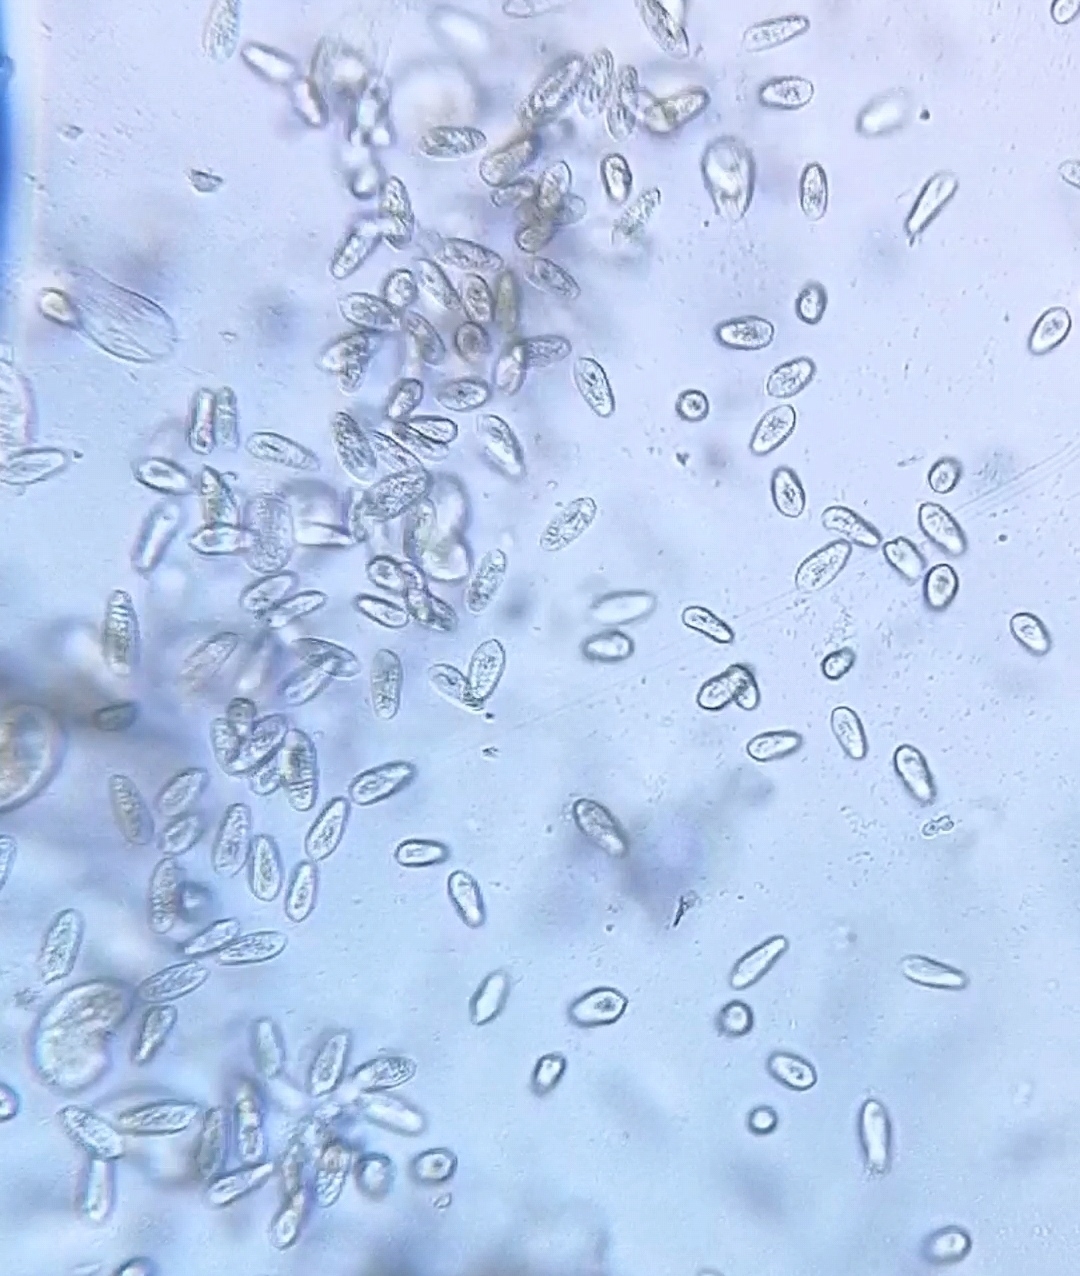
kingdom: Chromista
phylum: Cryptophyta
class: Cryptophyceae
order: Cryptomonadales
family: Cryptomonadaceae
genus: Cryptomonas
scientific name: Cryptomonas paramaecium
